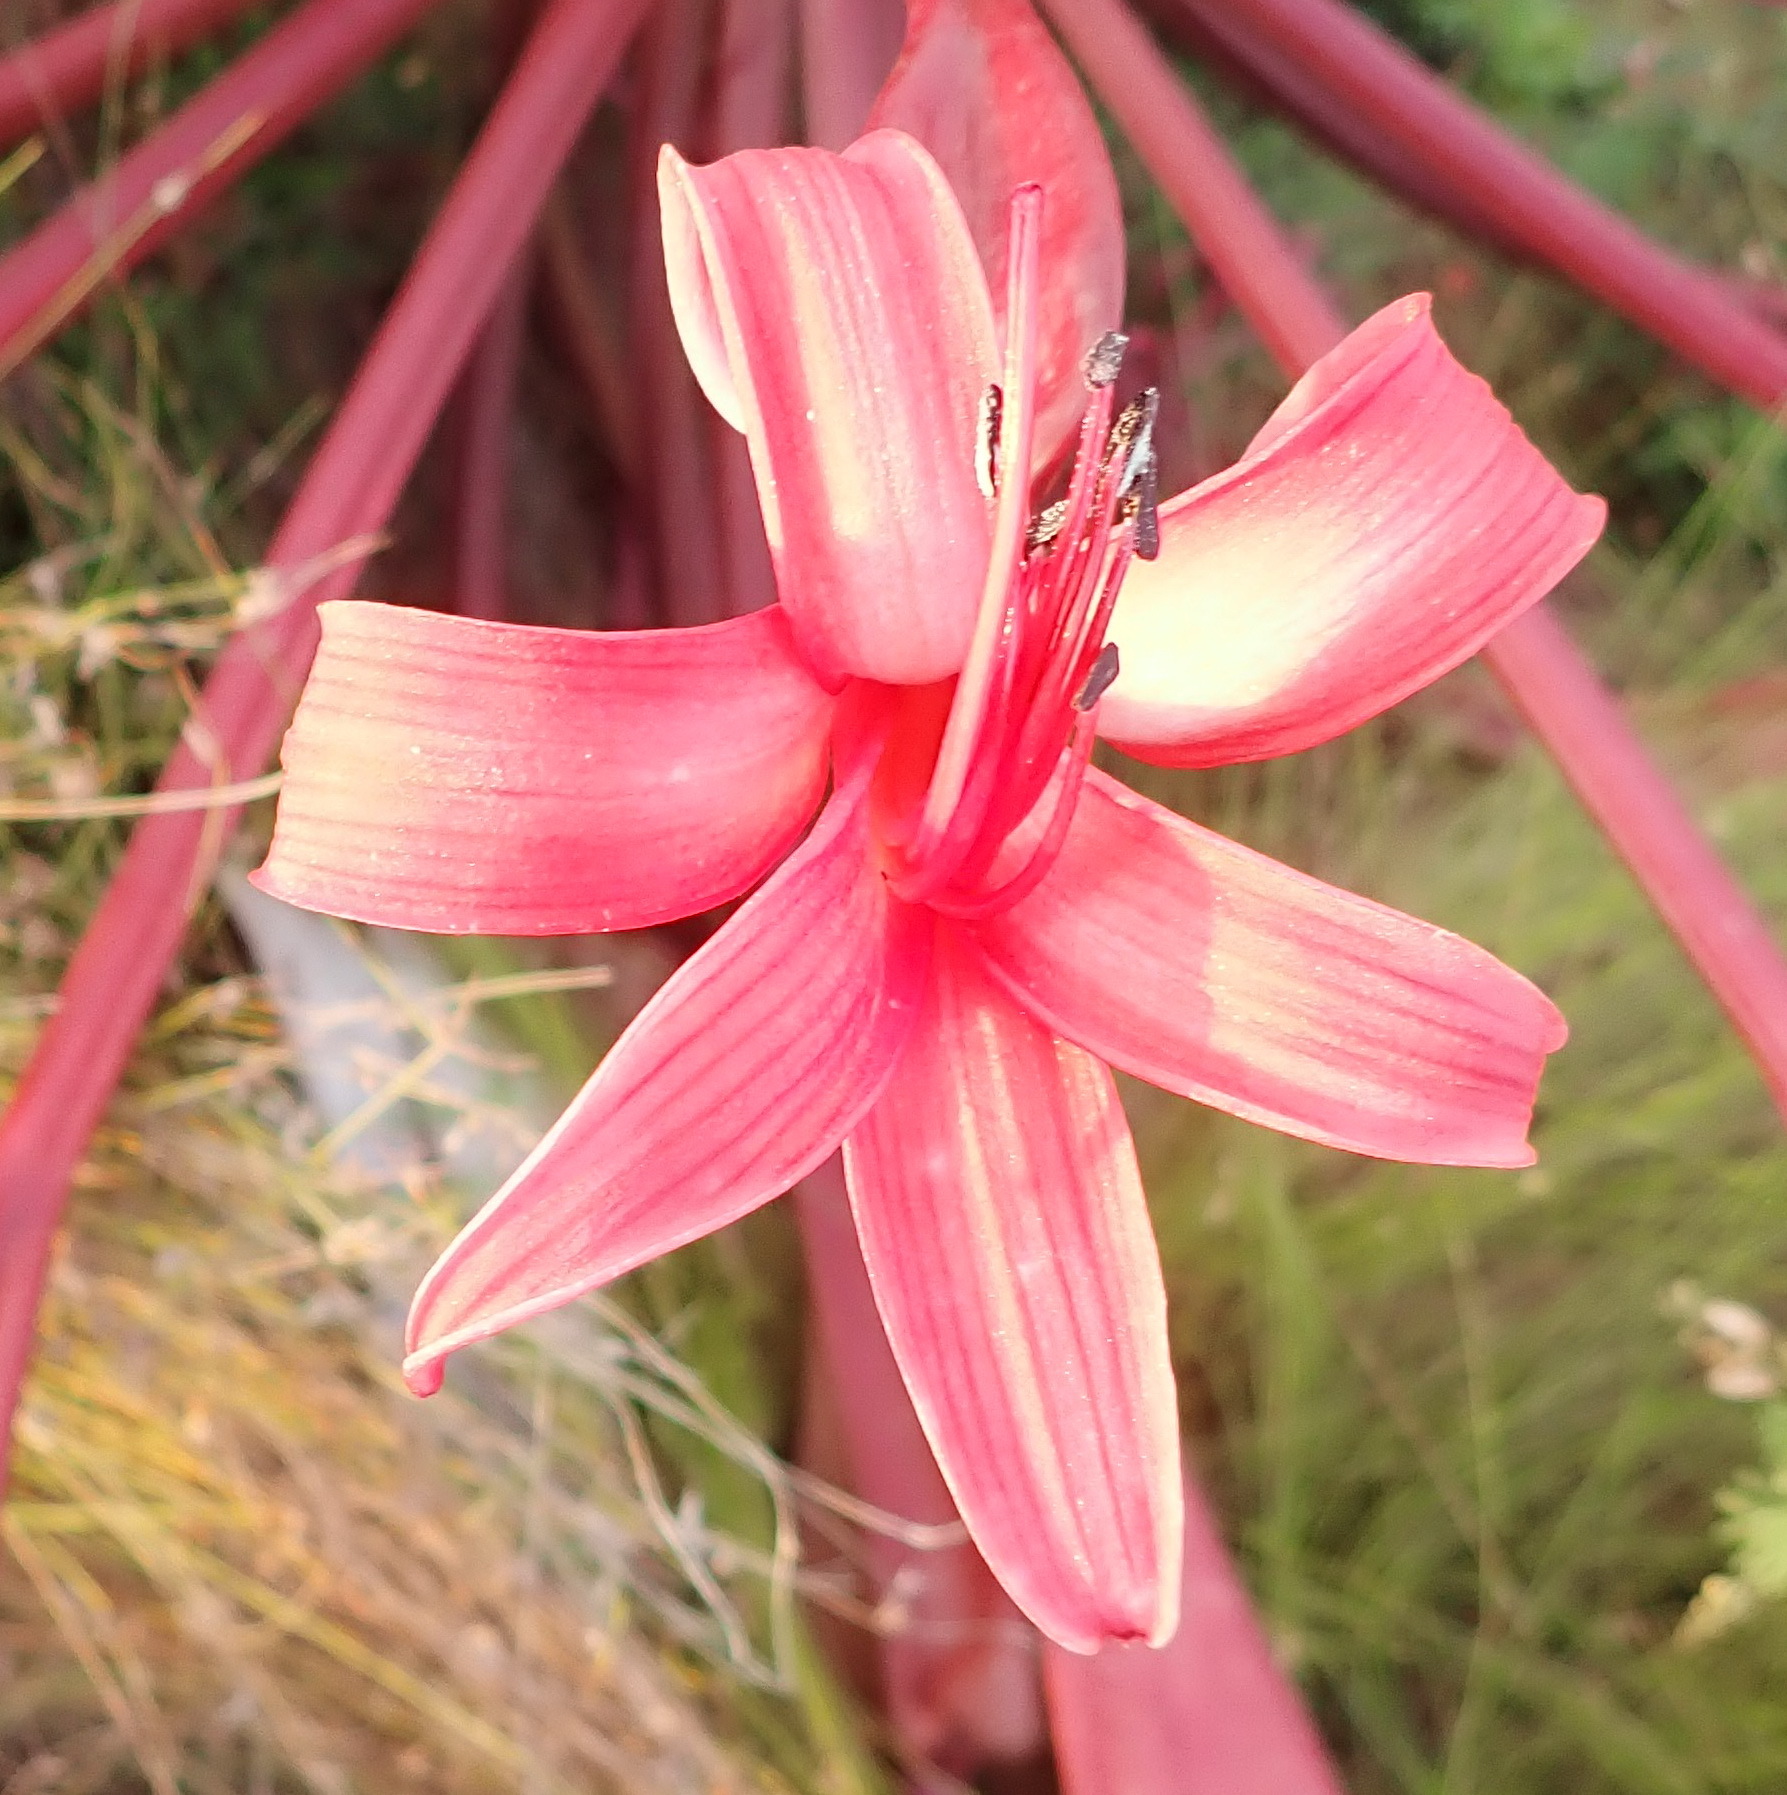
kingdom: Plantae
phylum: Tracheophyta
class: Liliopsida
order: Asparagales
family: Amaryllidaceae
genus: Brunsvigia
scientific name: Brunsvigia orientalis
